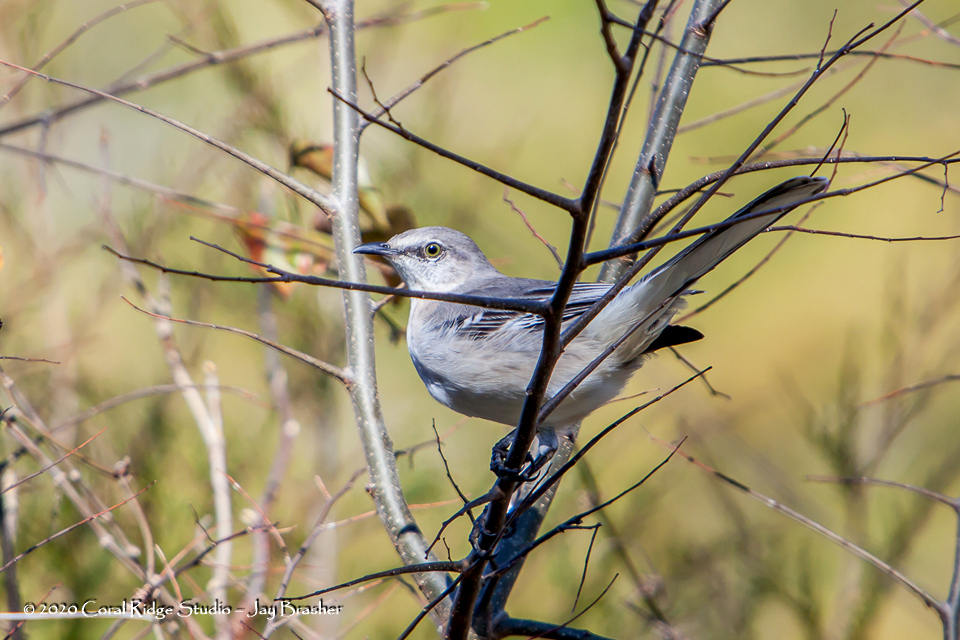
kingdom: Animalia
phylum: Chordata
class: Aves
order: Passeriformes
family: Mimidae
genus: Mimus
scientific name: Mimus polyglottos
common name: Northern mockingbird
